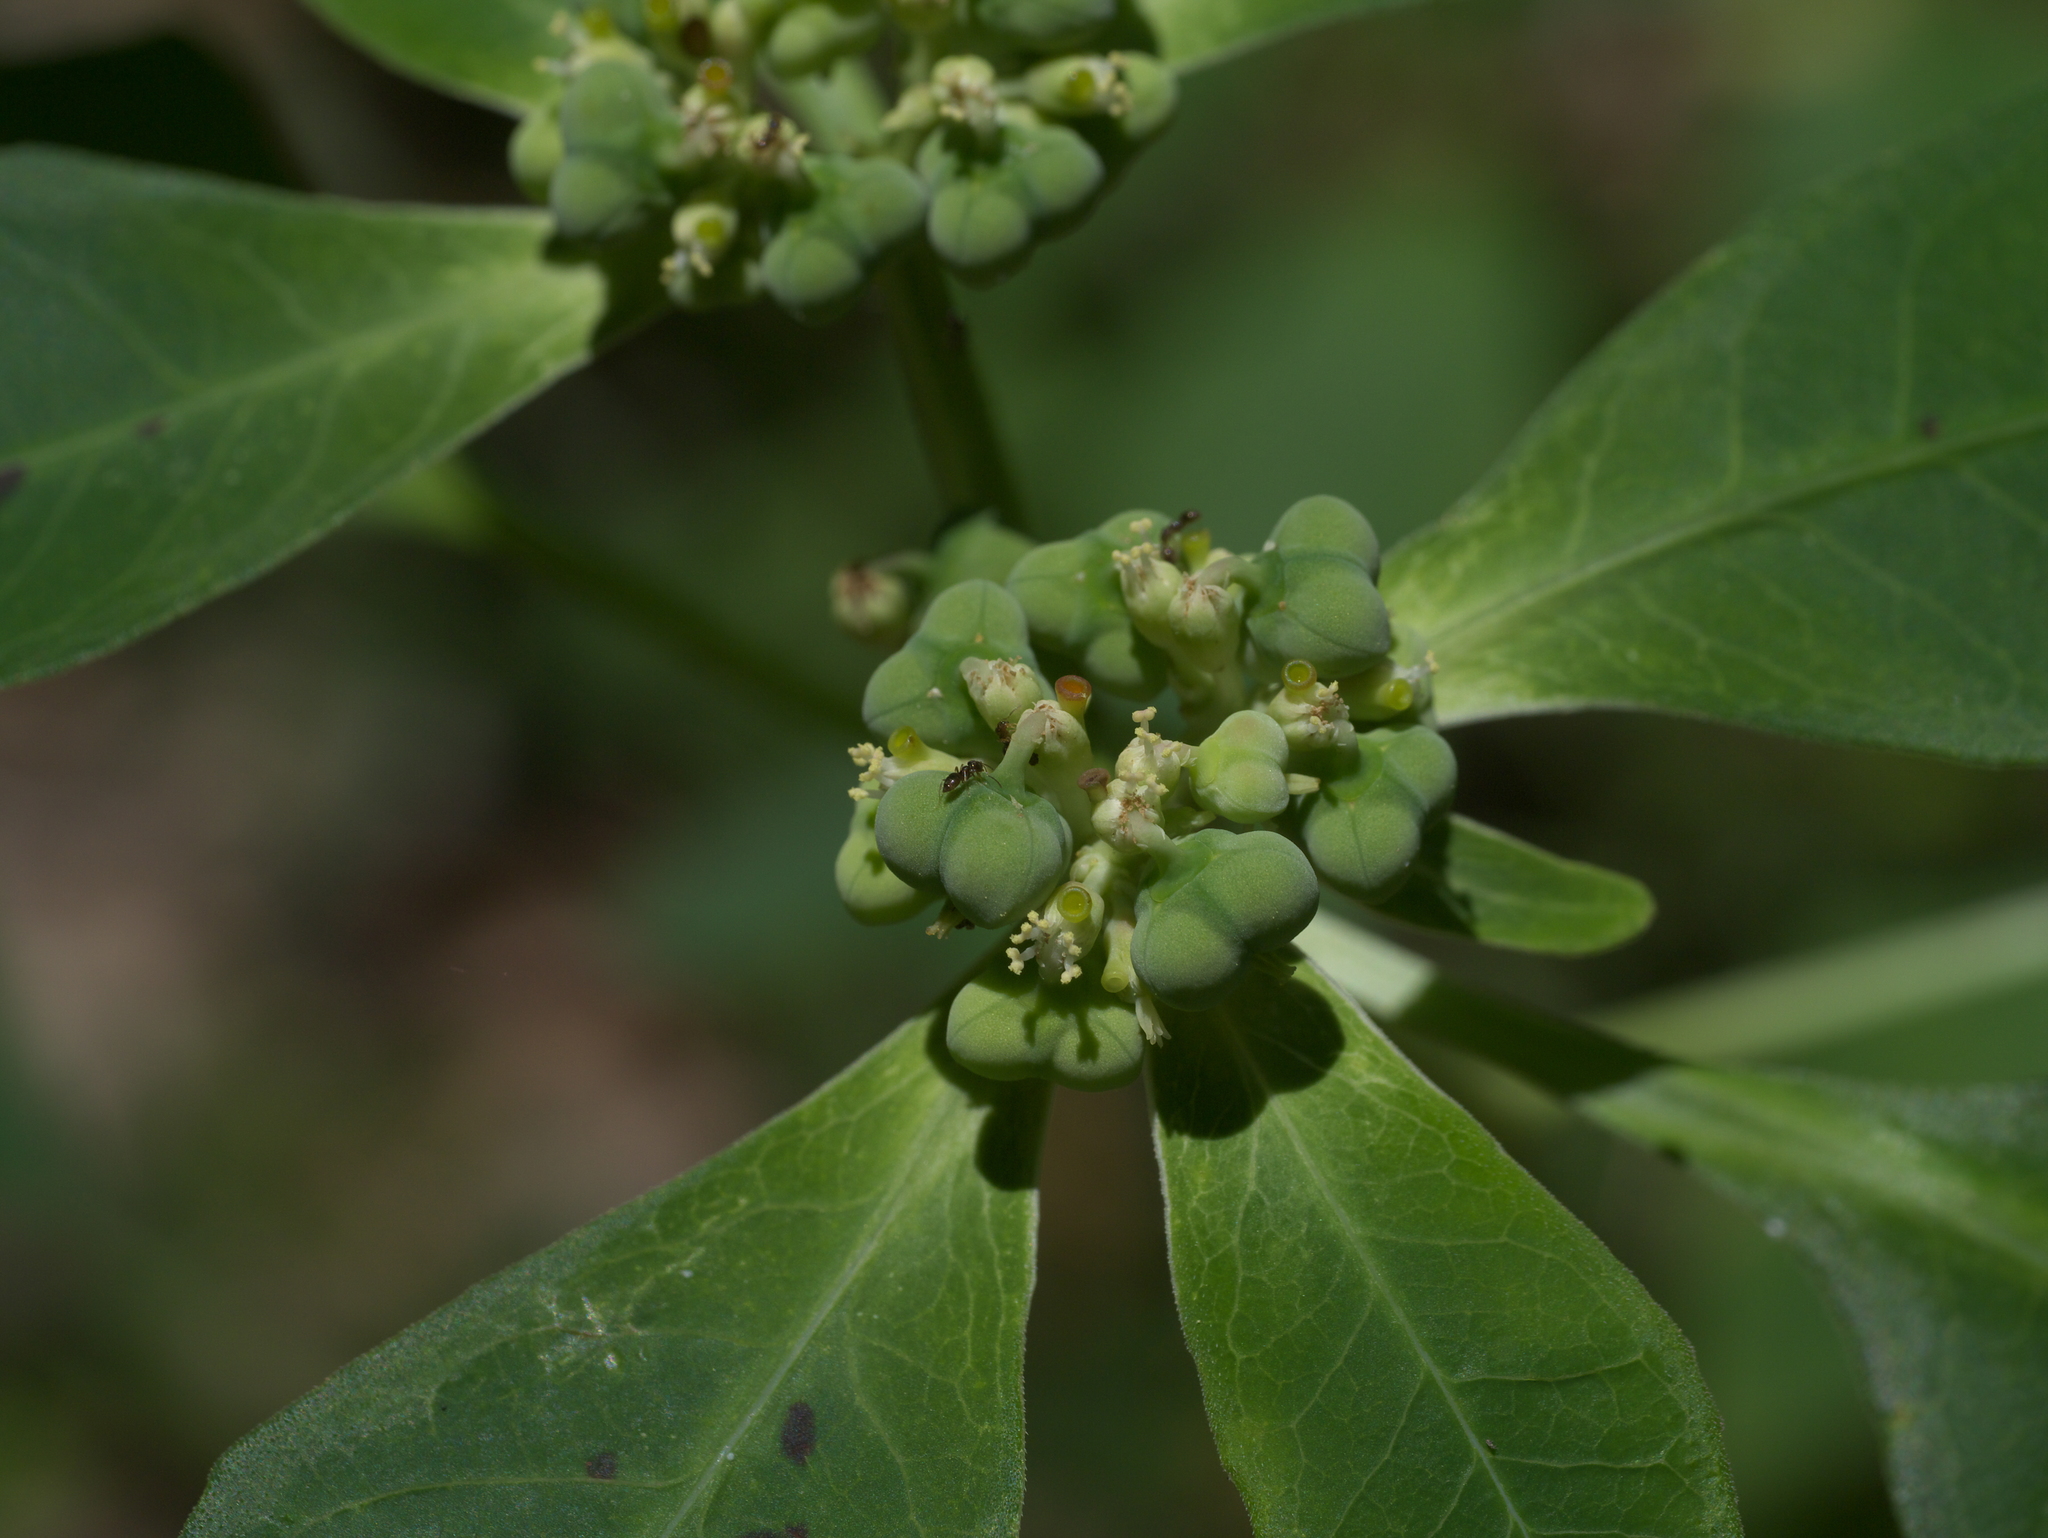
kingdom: Plantae
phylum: Tracheophyta
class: Magnoliopsida
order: Malpighiales
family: Euphorbiaceae
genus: Euphorbia
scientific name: Euphorbia heterophylla
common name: Mexican fireplant
